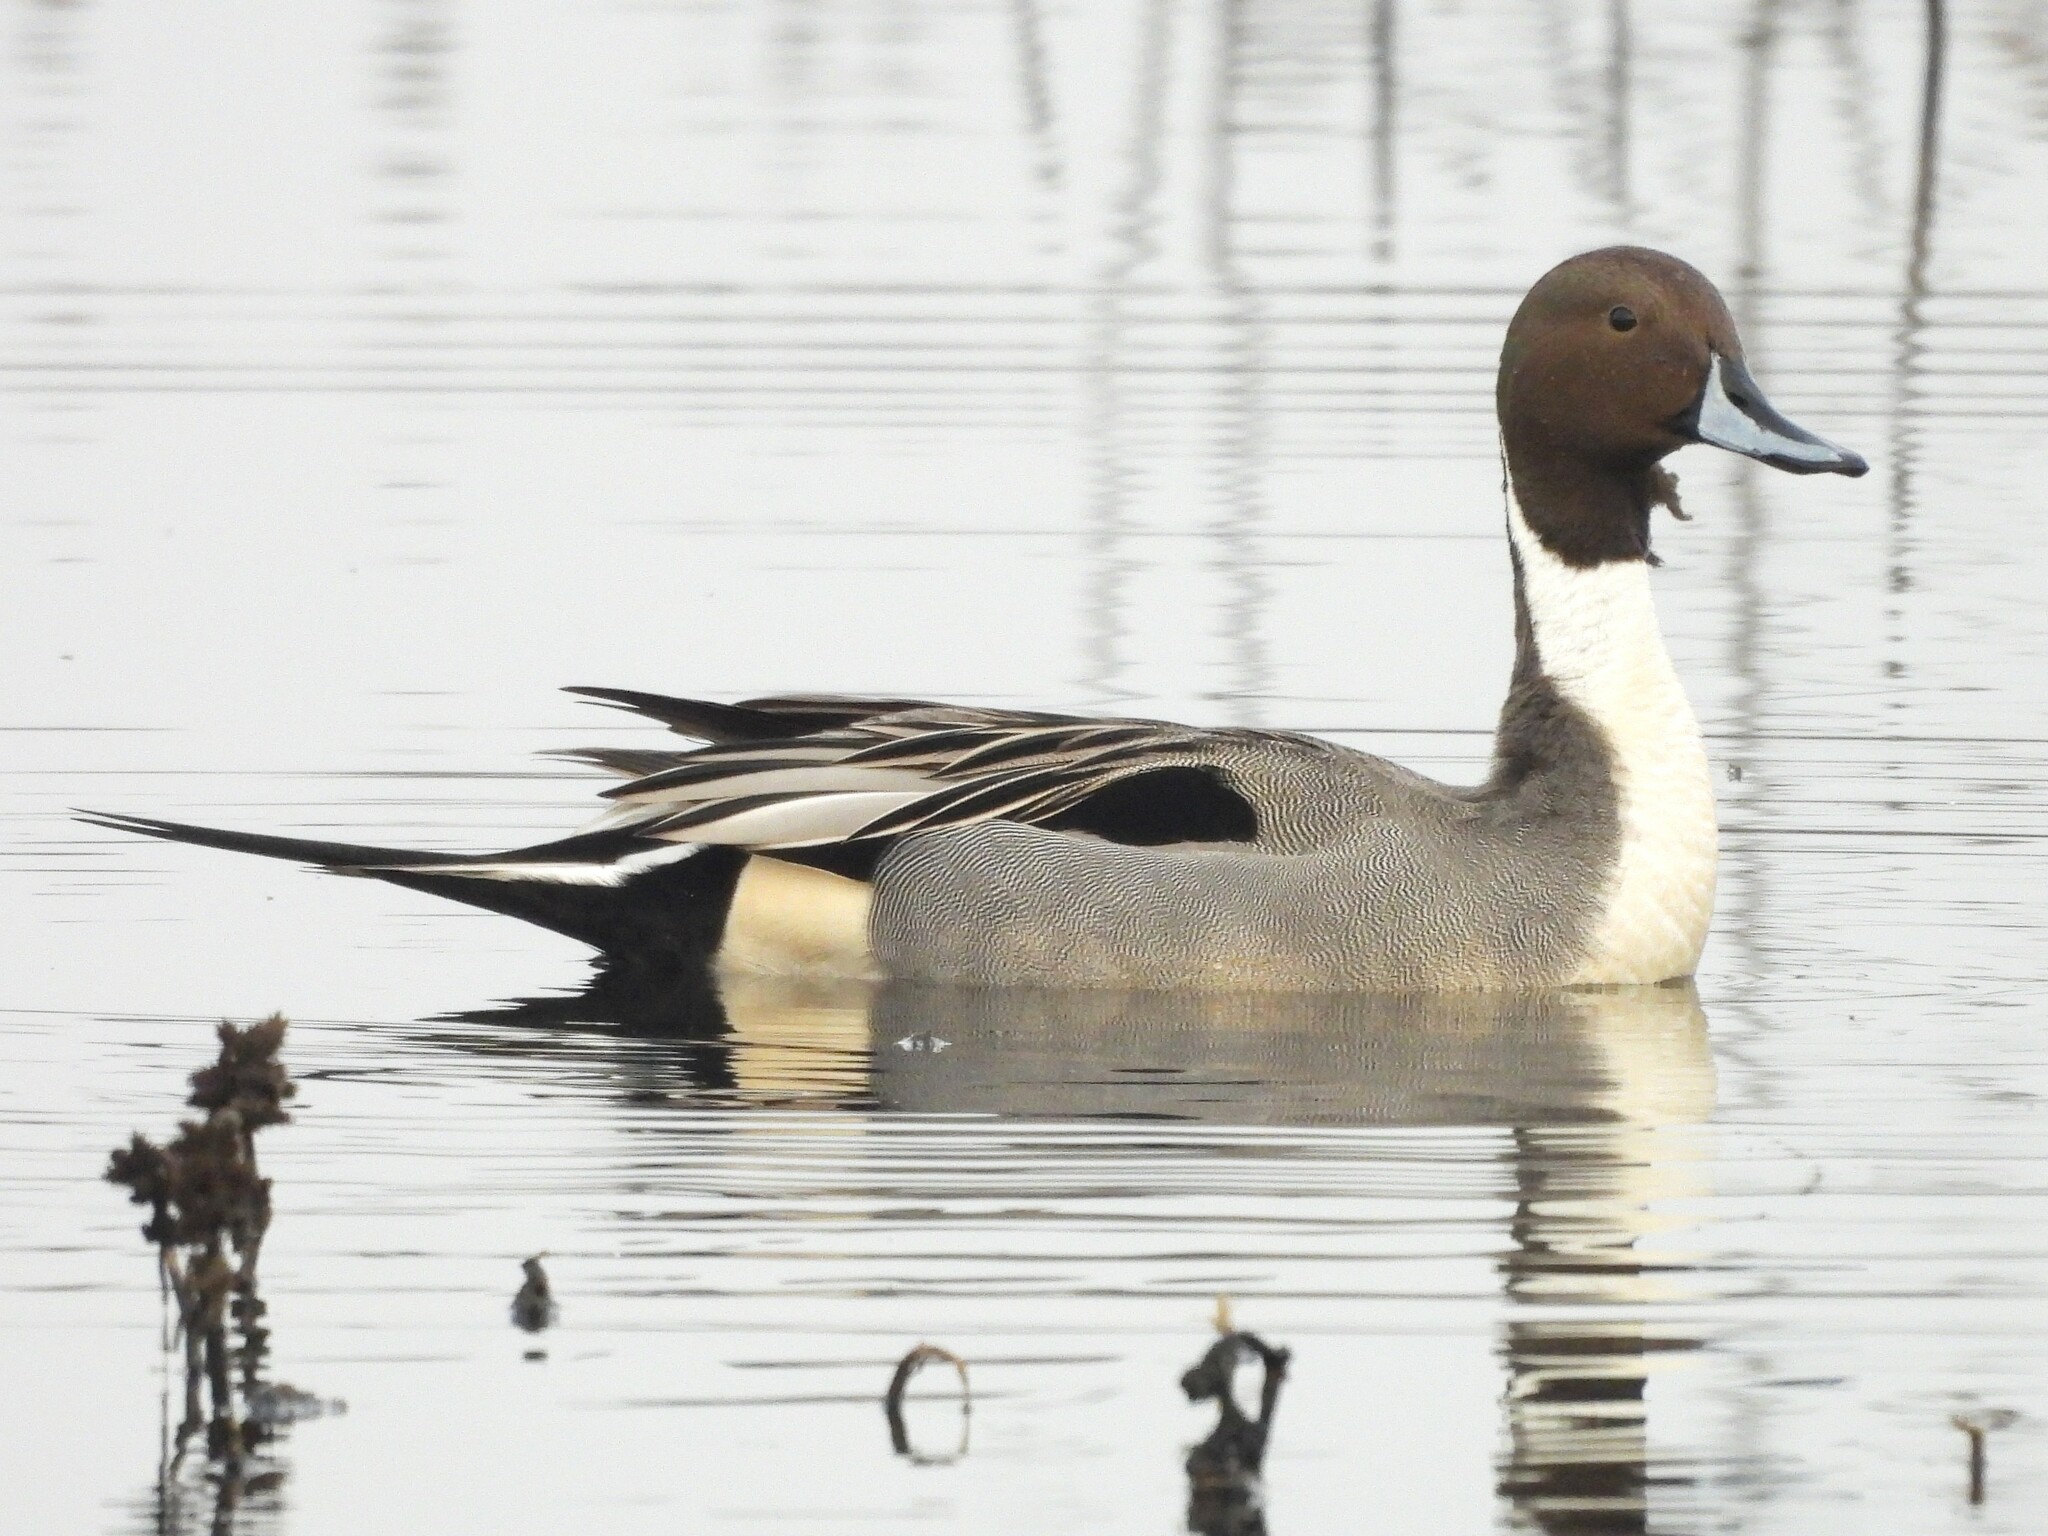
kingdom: Animalia
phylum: Chordata
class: Aves
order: Anseriformes
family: Anatidae
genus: Anas
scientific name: Anas acuta
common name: Northern pintail
